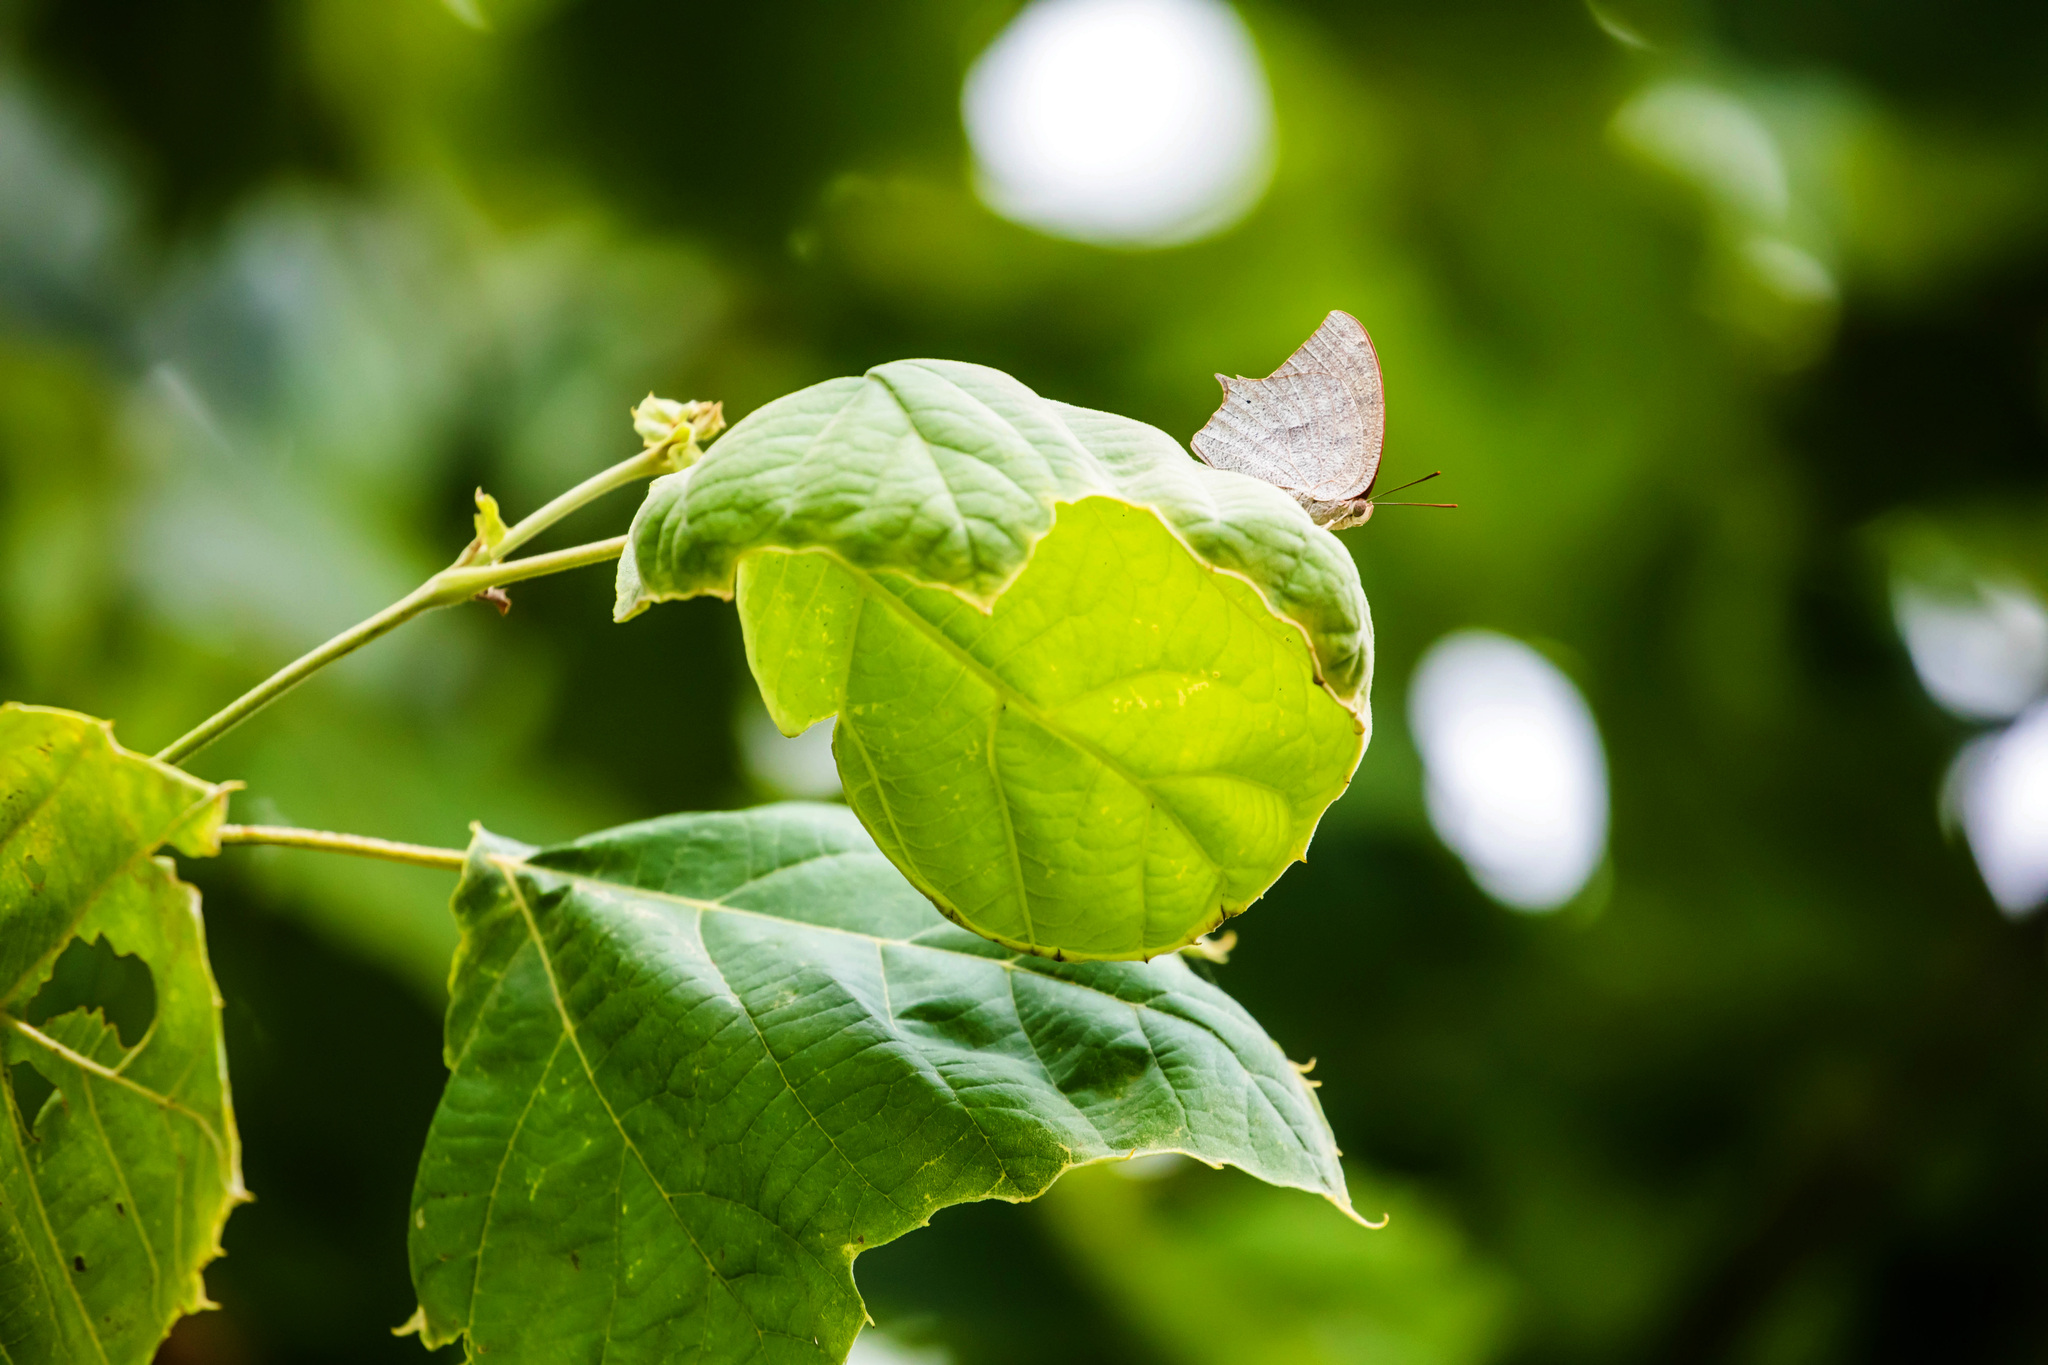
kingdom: Animalia
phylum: Arthropoda
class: Insecta
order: Lepidoptera
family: Nymphalidae
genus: Anaea
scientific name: Anaea andria
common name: Goatweed leafwing
